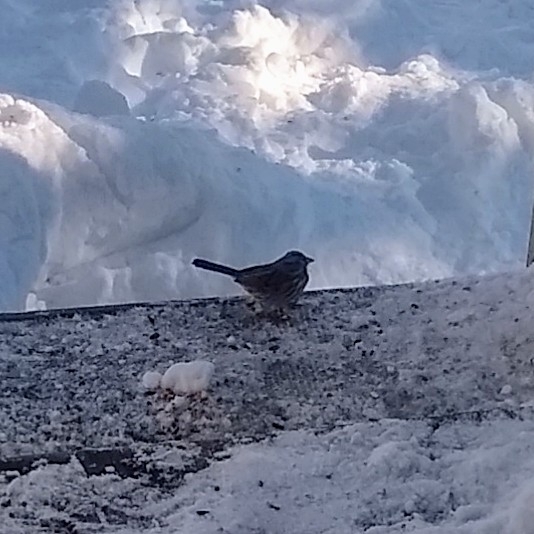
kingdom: Animalia
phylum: Chordata
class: Aves
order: Passeriformes
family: Passerellidae
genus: Melospiza
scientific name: Melospiza melodia
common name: Song sparrow
